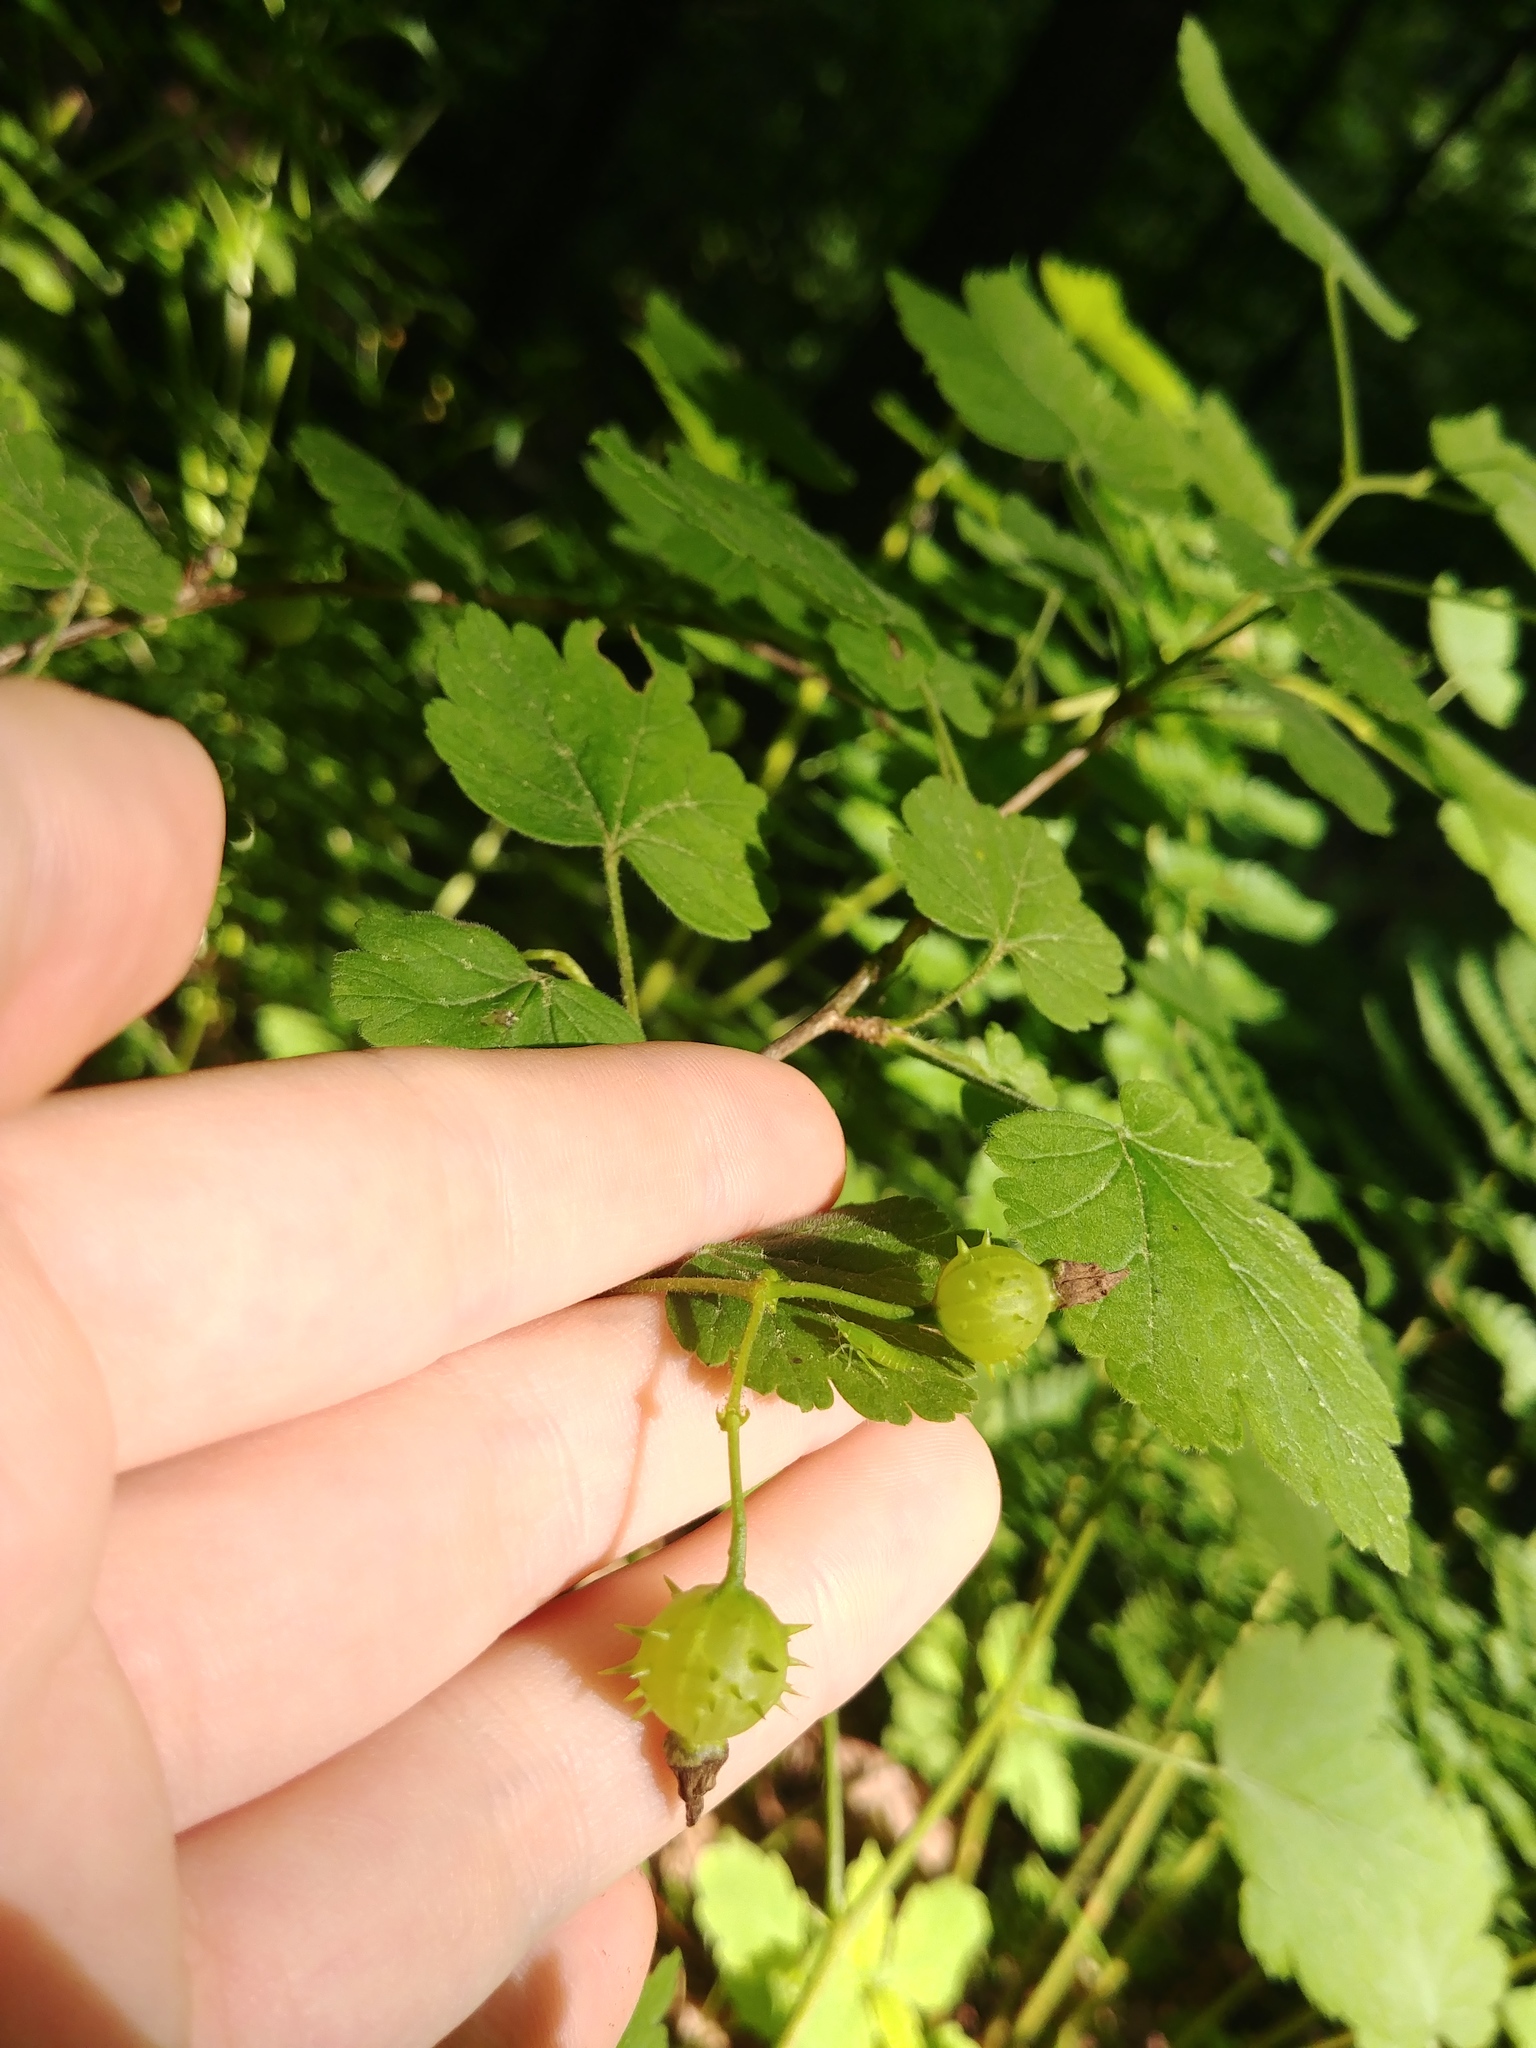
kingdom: Plantae
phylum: Tracheophyta
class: Magnoliopsida
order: Saxifragales
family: Grossulariaceae
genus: Ribes
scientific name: Ribes cynosbati
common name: American gooseberry
